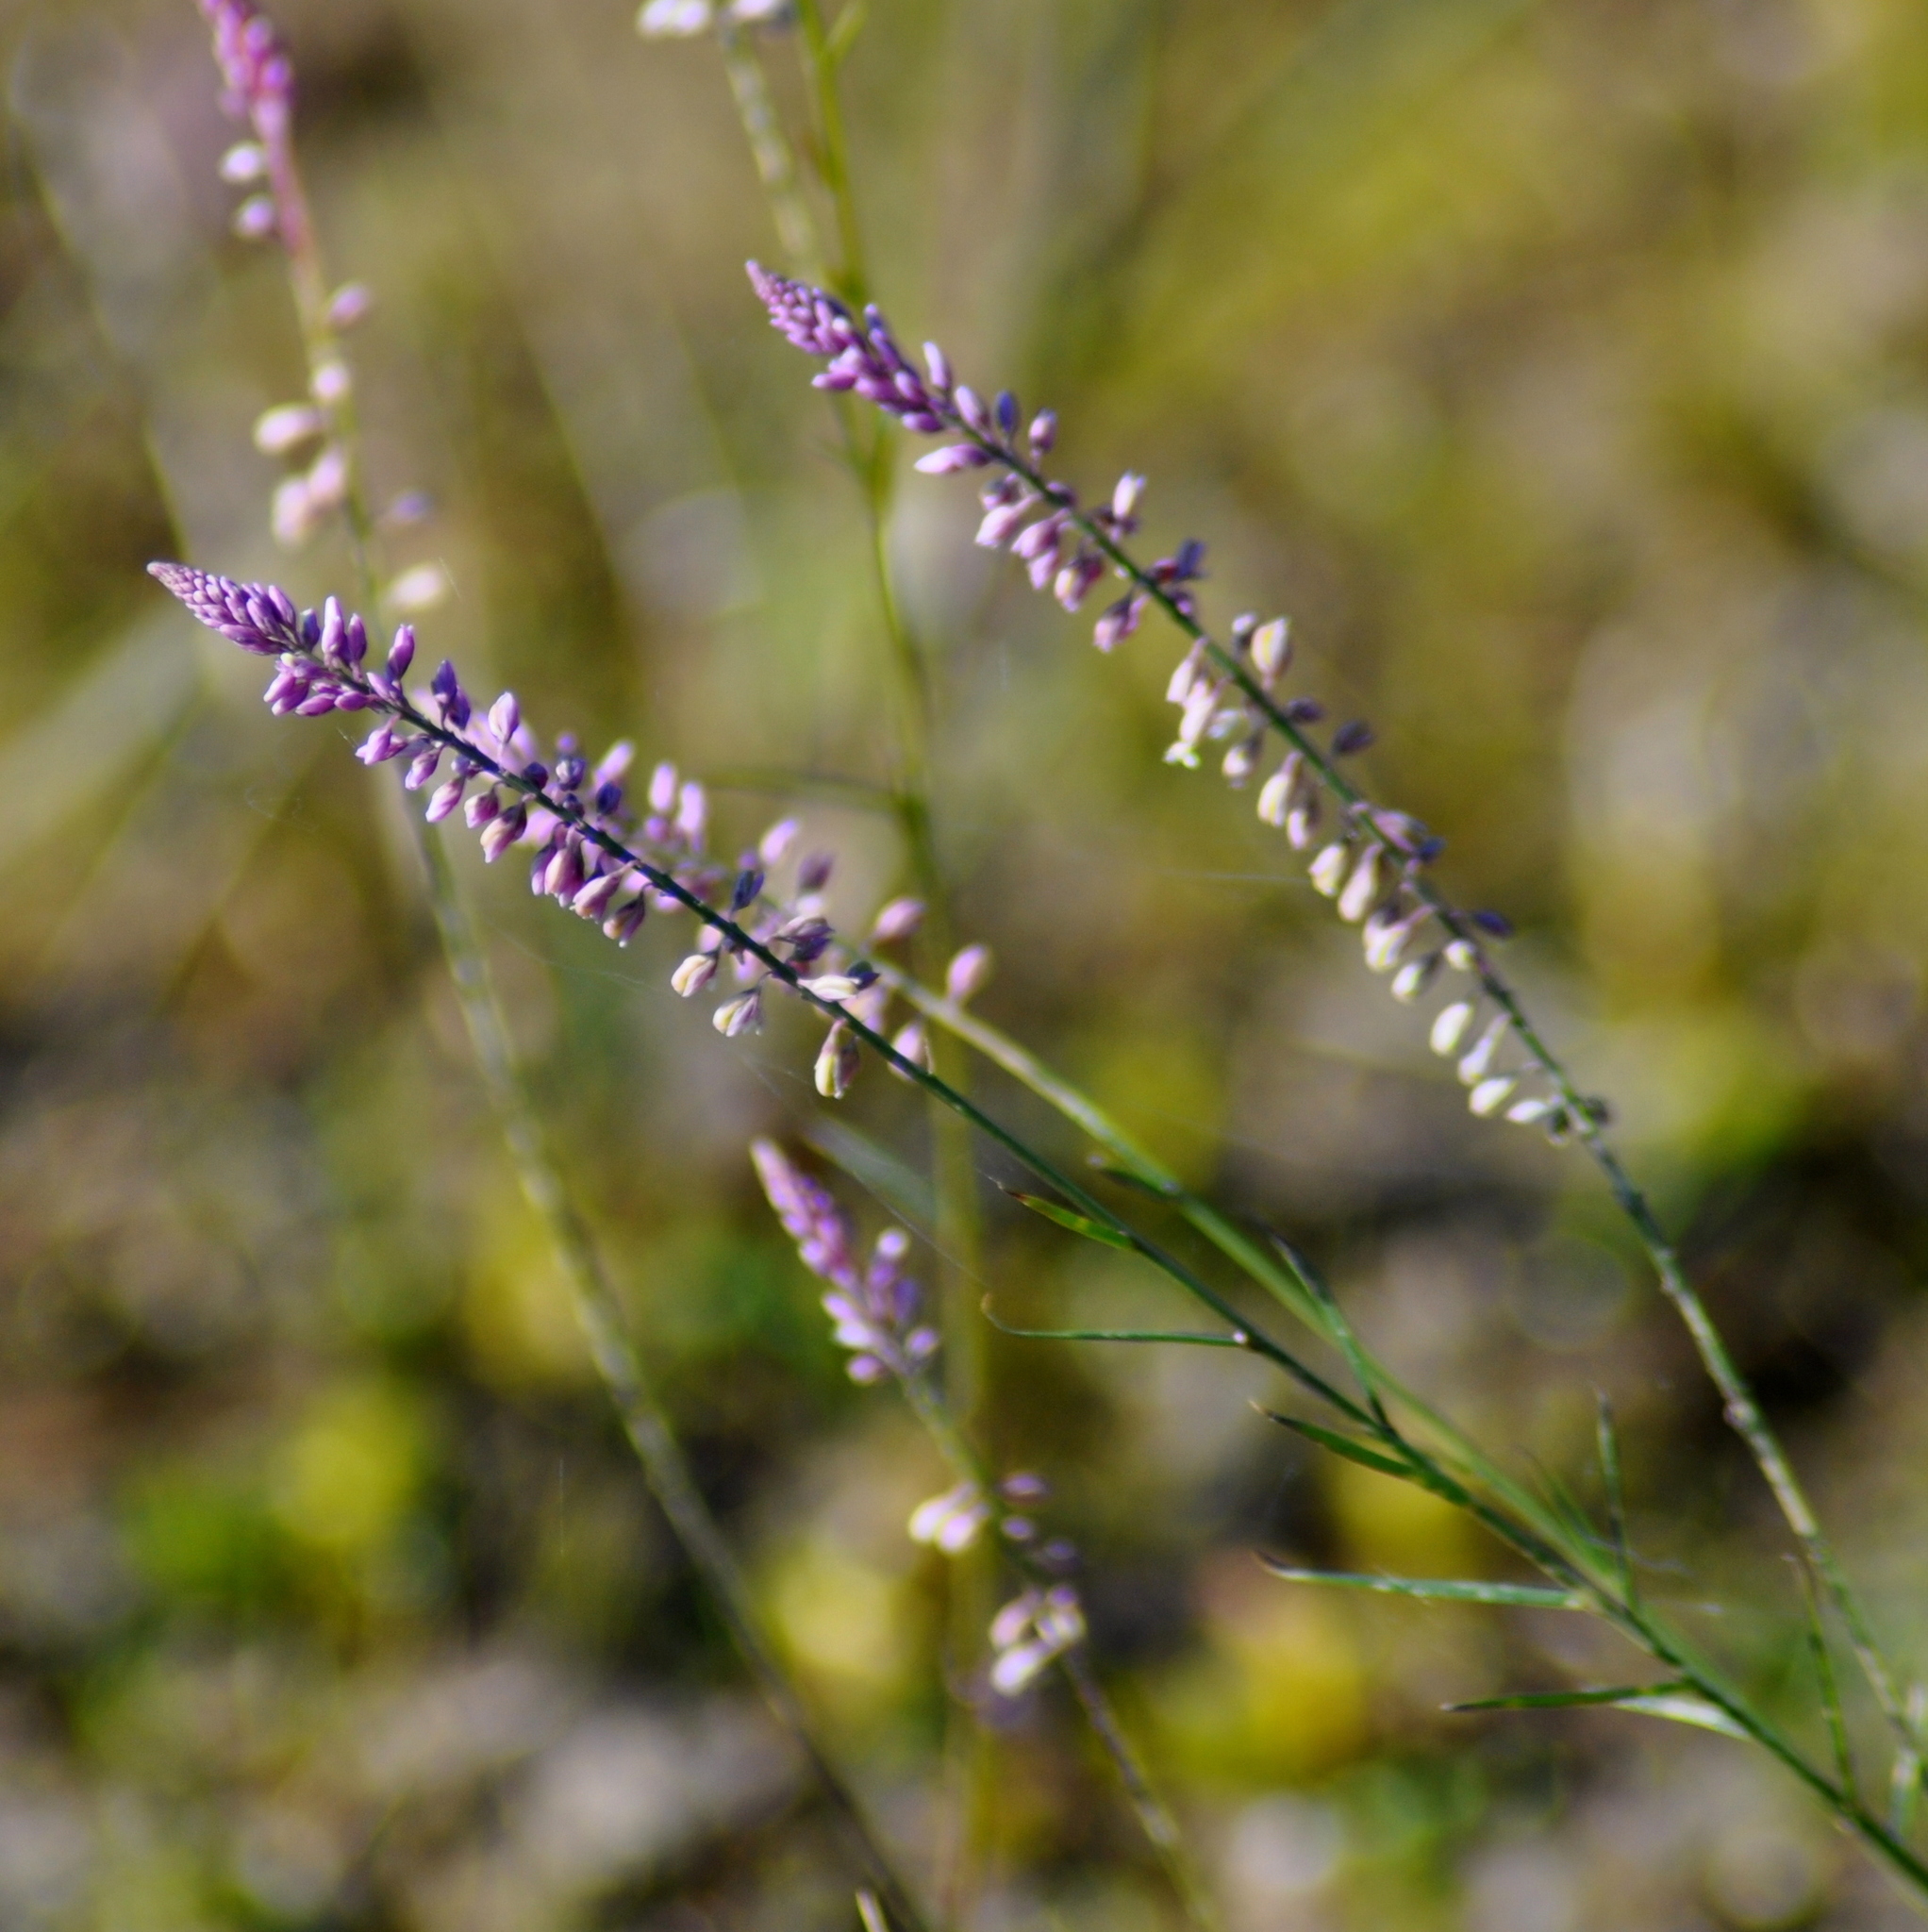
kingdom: Plantae
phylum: Tracheophyta
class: Magnoliopsida
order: Fabales
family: Polygalaceae
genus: Polygala
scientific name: Polygala tenella
